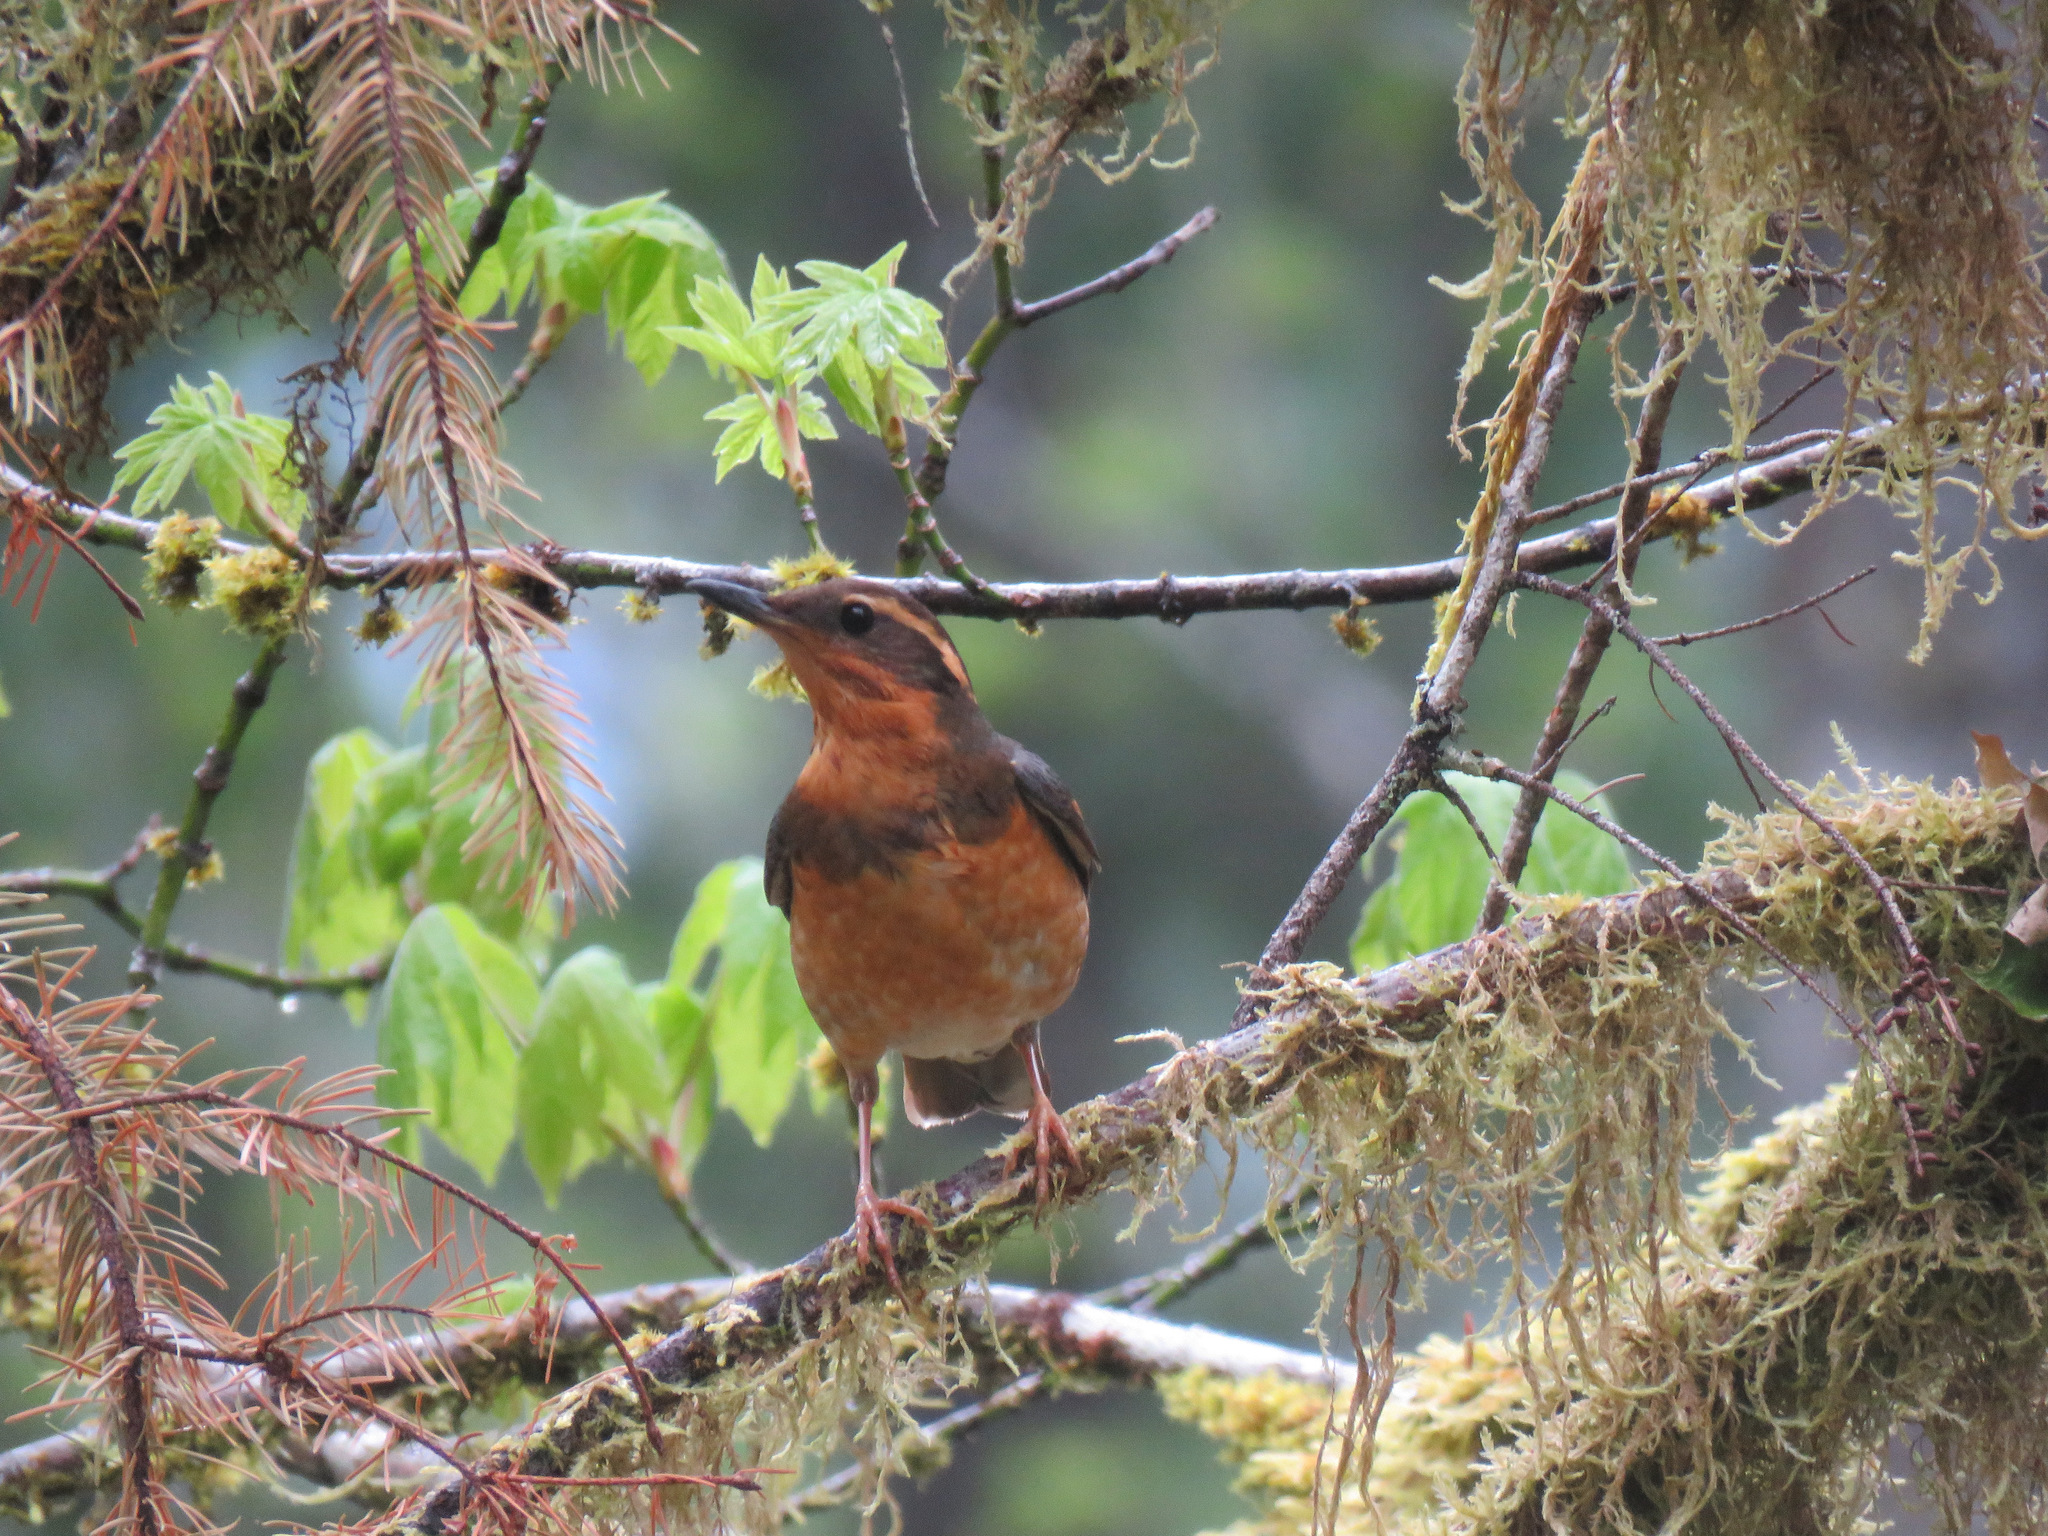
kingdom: Animalia
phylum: Chordata
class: Aves
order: Passeriformes
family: Turdidae
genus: Ixoreus
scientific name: Ixoreus naevius
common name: Varied thrush
